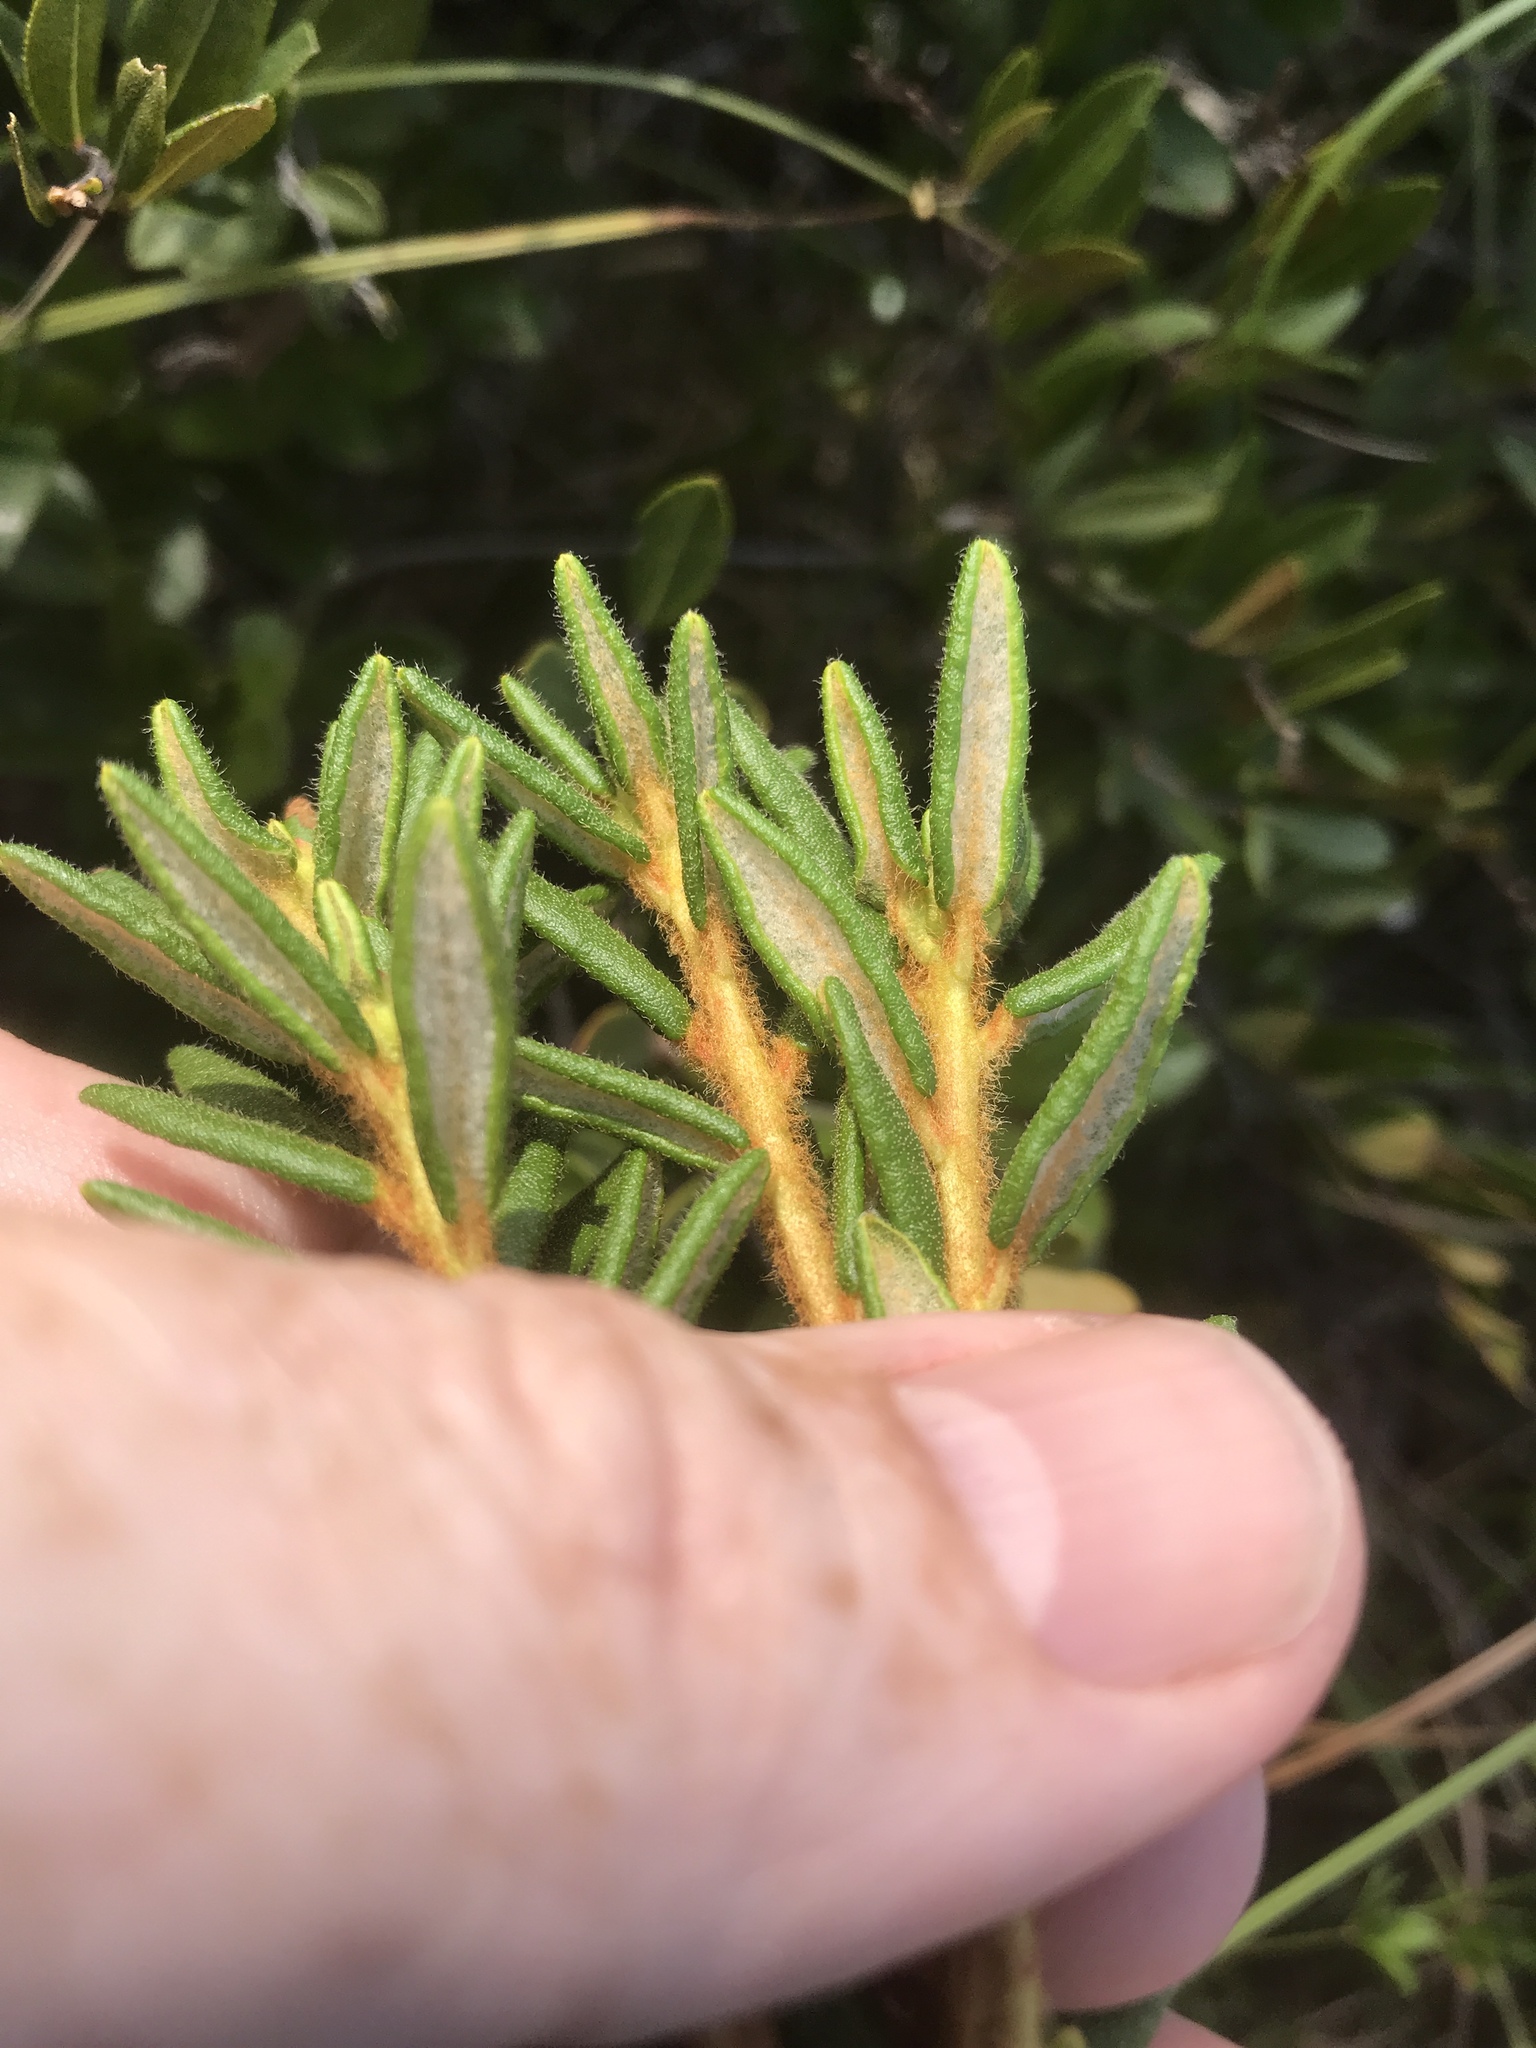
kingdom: Plantae
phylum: Tracheophyta
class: Magnoliopsida
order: Ericales
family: Ericaceae
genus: Rhododendron
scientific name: Rhododendron groenlandicum
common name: Bog labrador tea
